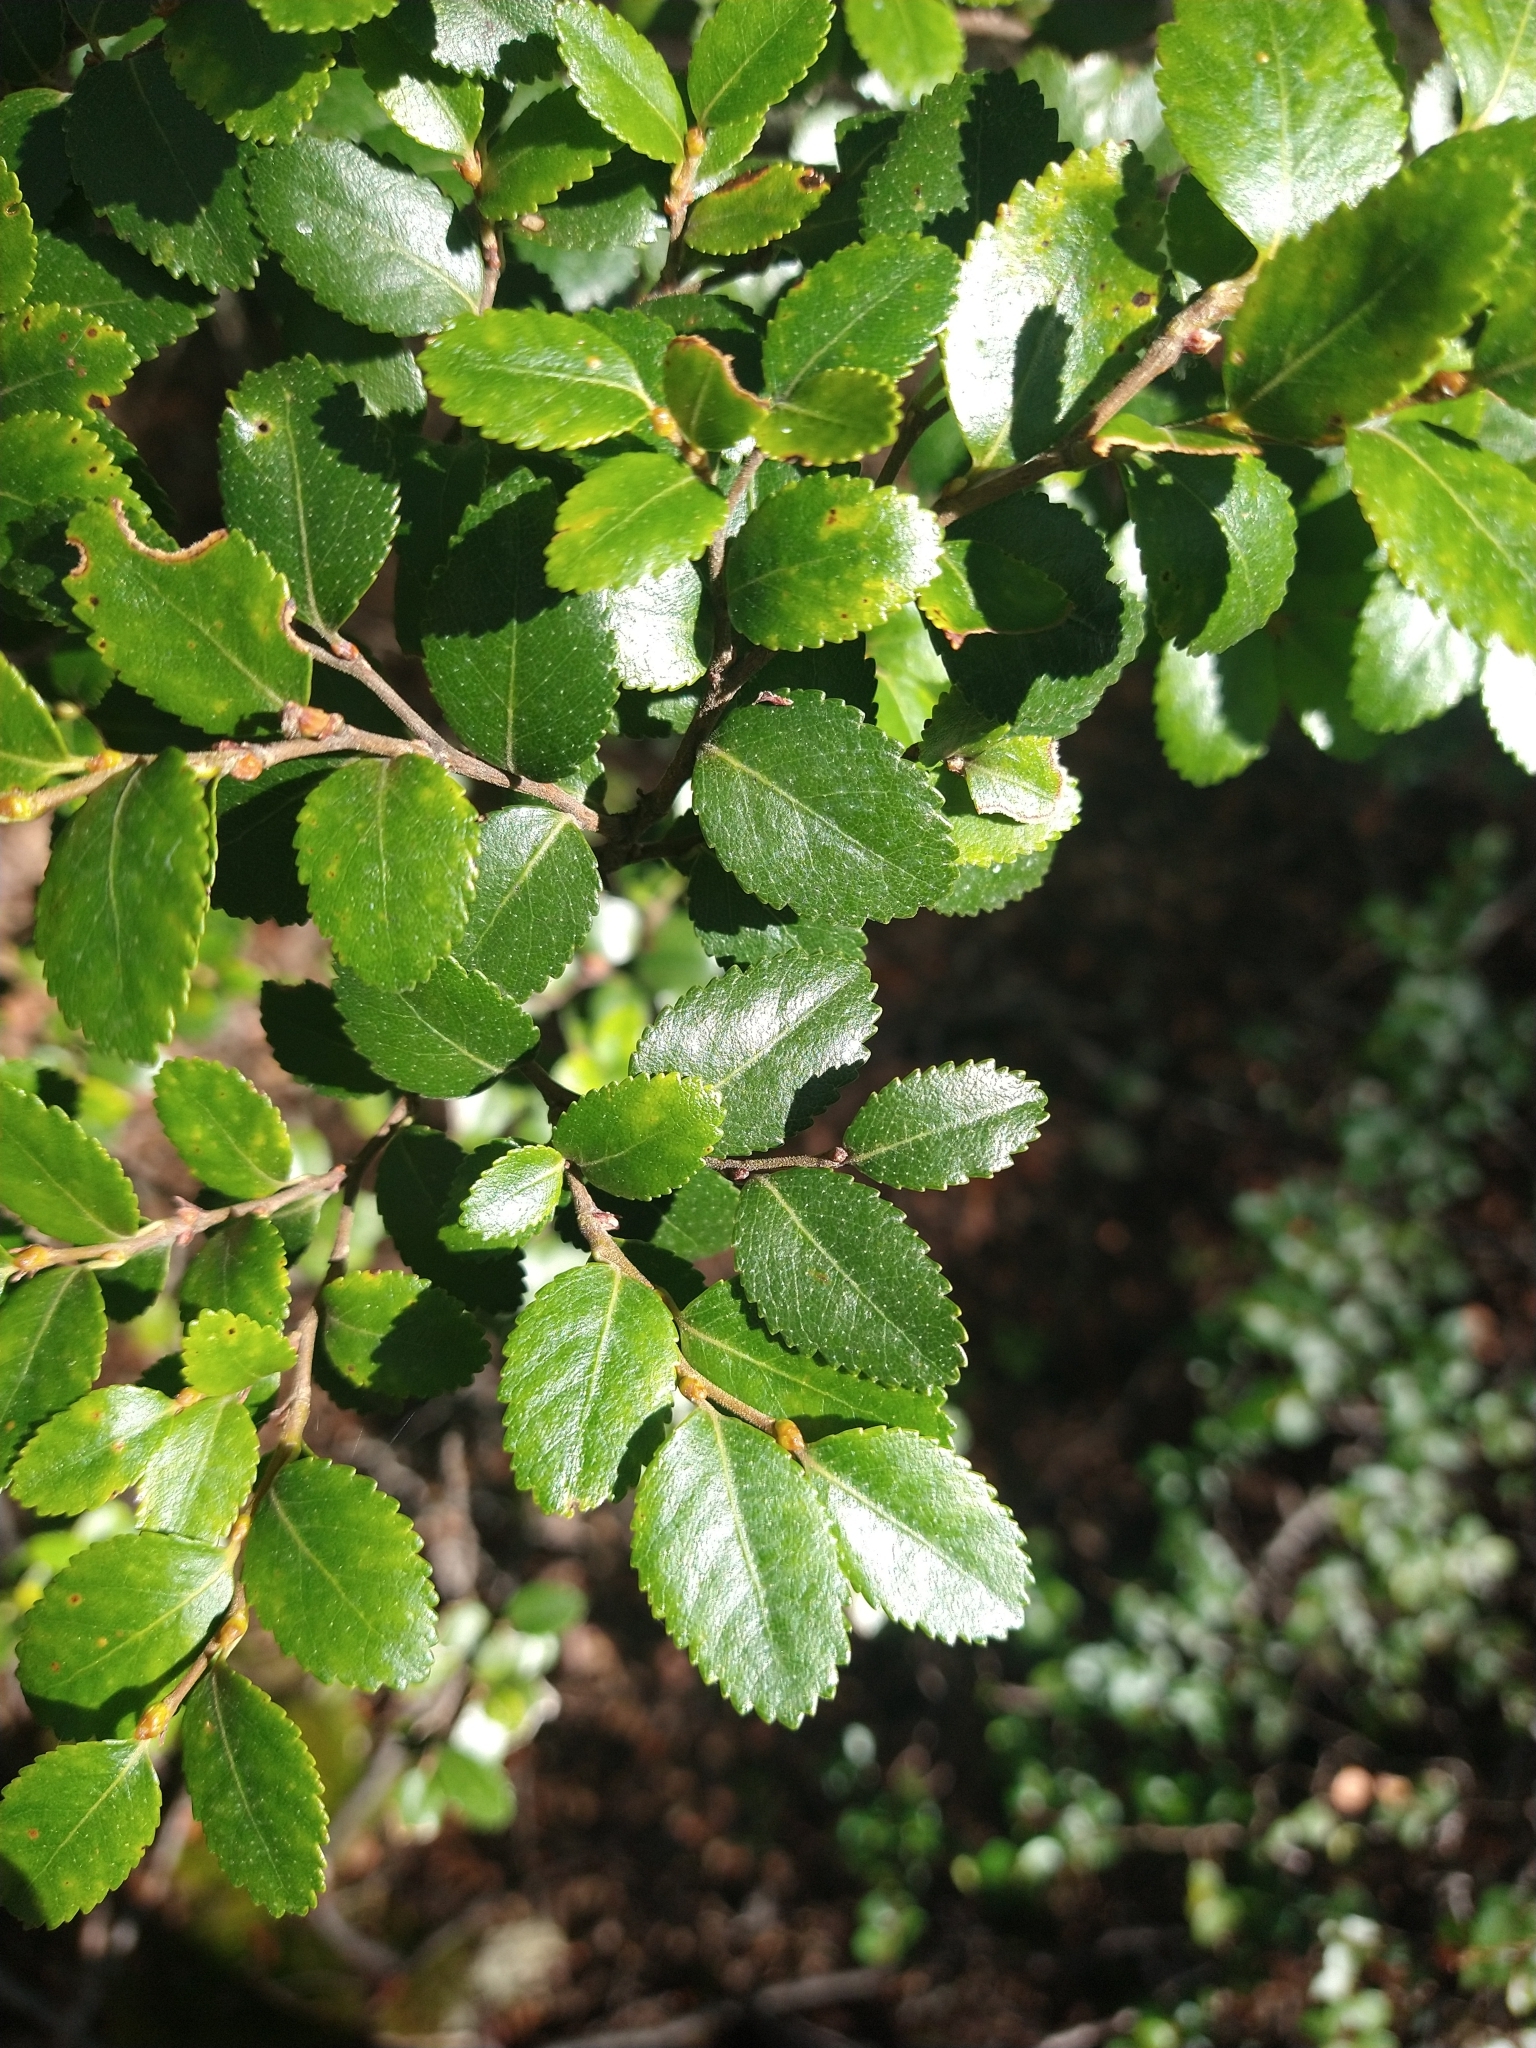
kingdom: Plantae
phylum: Tracheophyta
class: Magnoliopsida
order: Fagales
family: Nothofagaceae
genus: Nothofagus
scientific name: Nothofagus betuloides
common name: Magellan's beech
